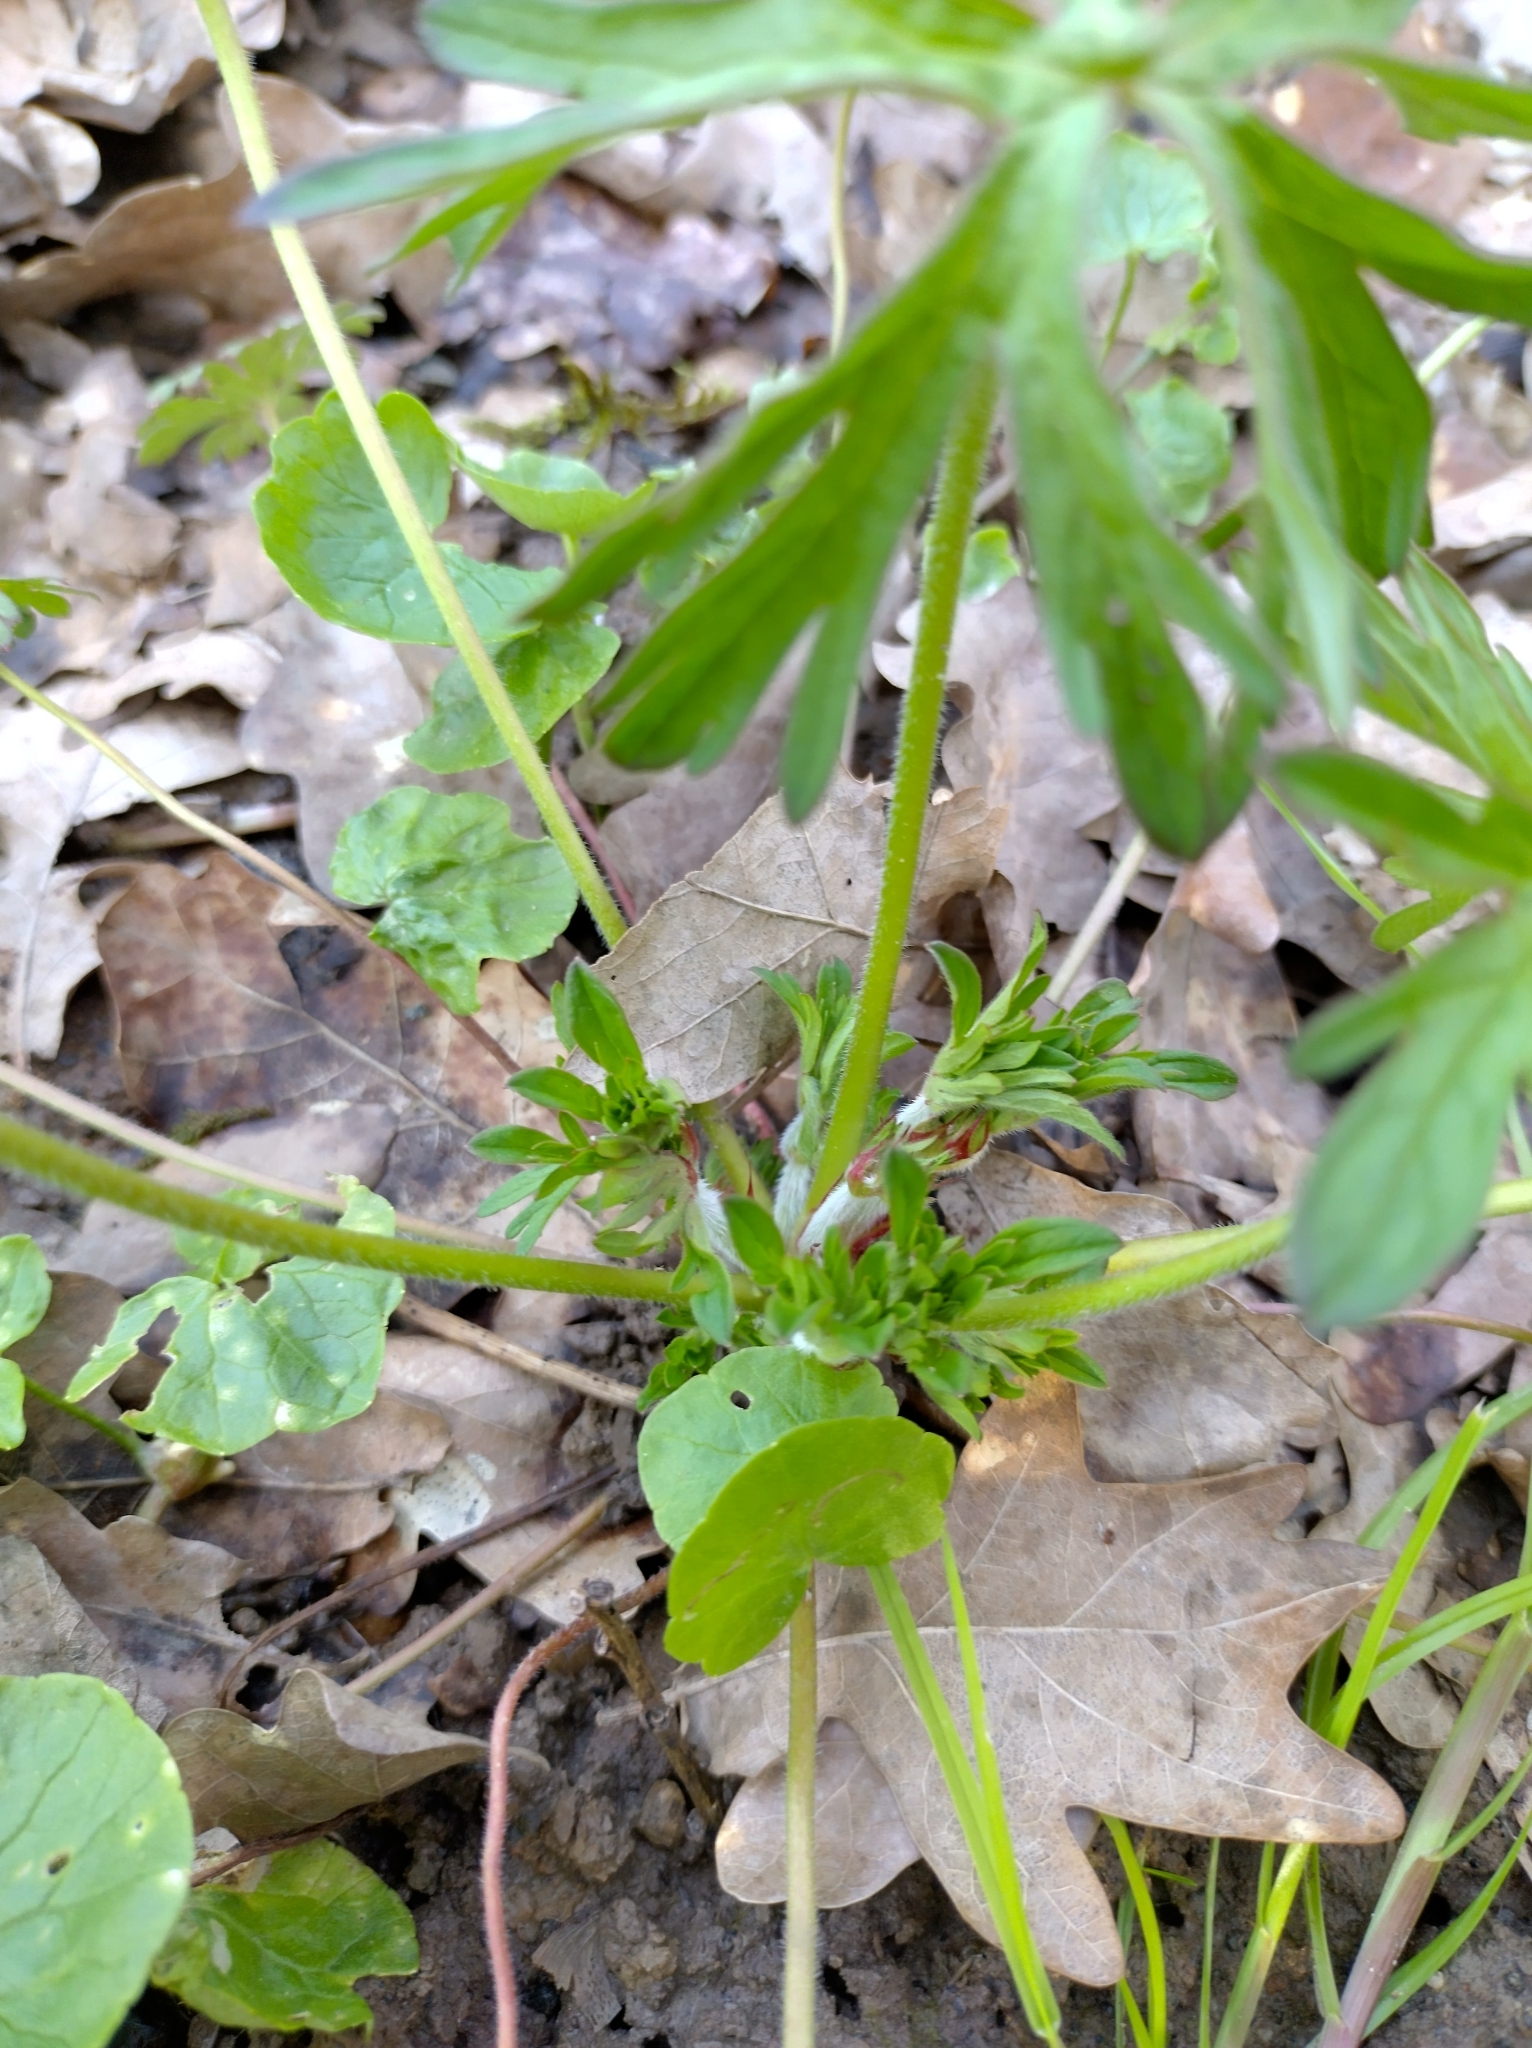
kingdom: Plantae
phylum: Tracheophyta
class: Magnoliopsida
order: Geraniales
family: Geraniaceae
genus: Geranium
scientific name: Geranium dissectum
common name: Cut-leaved crane's-bill
